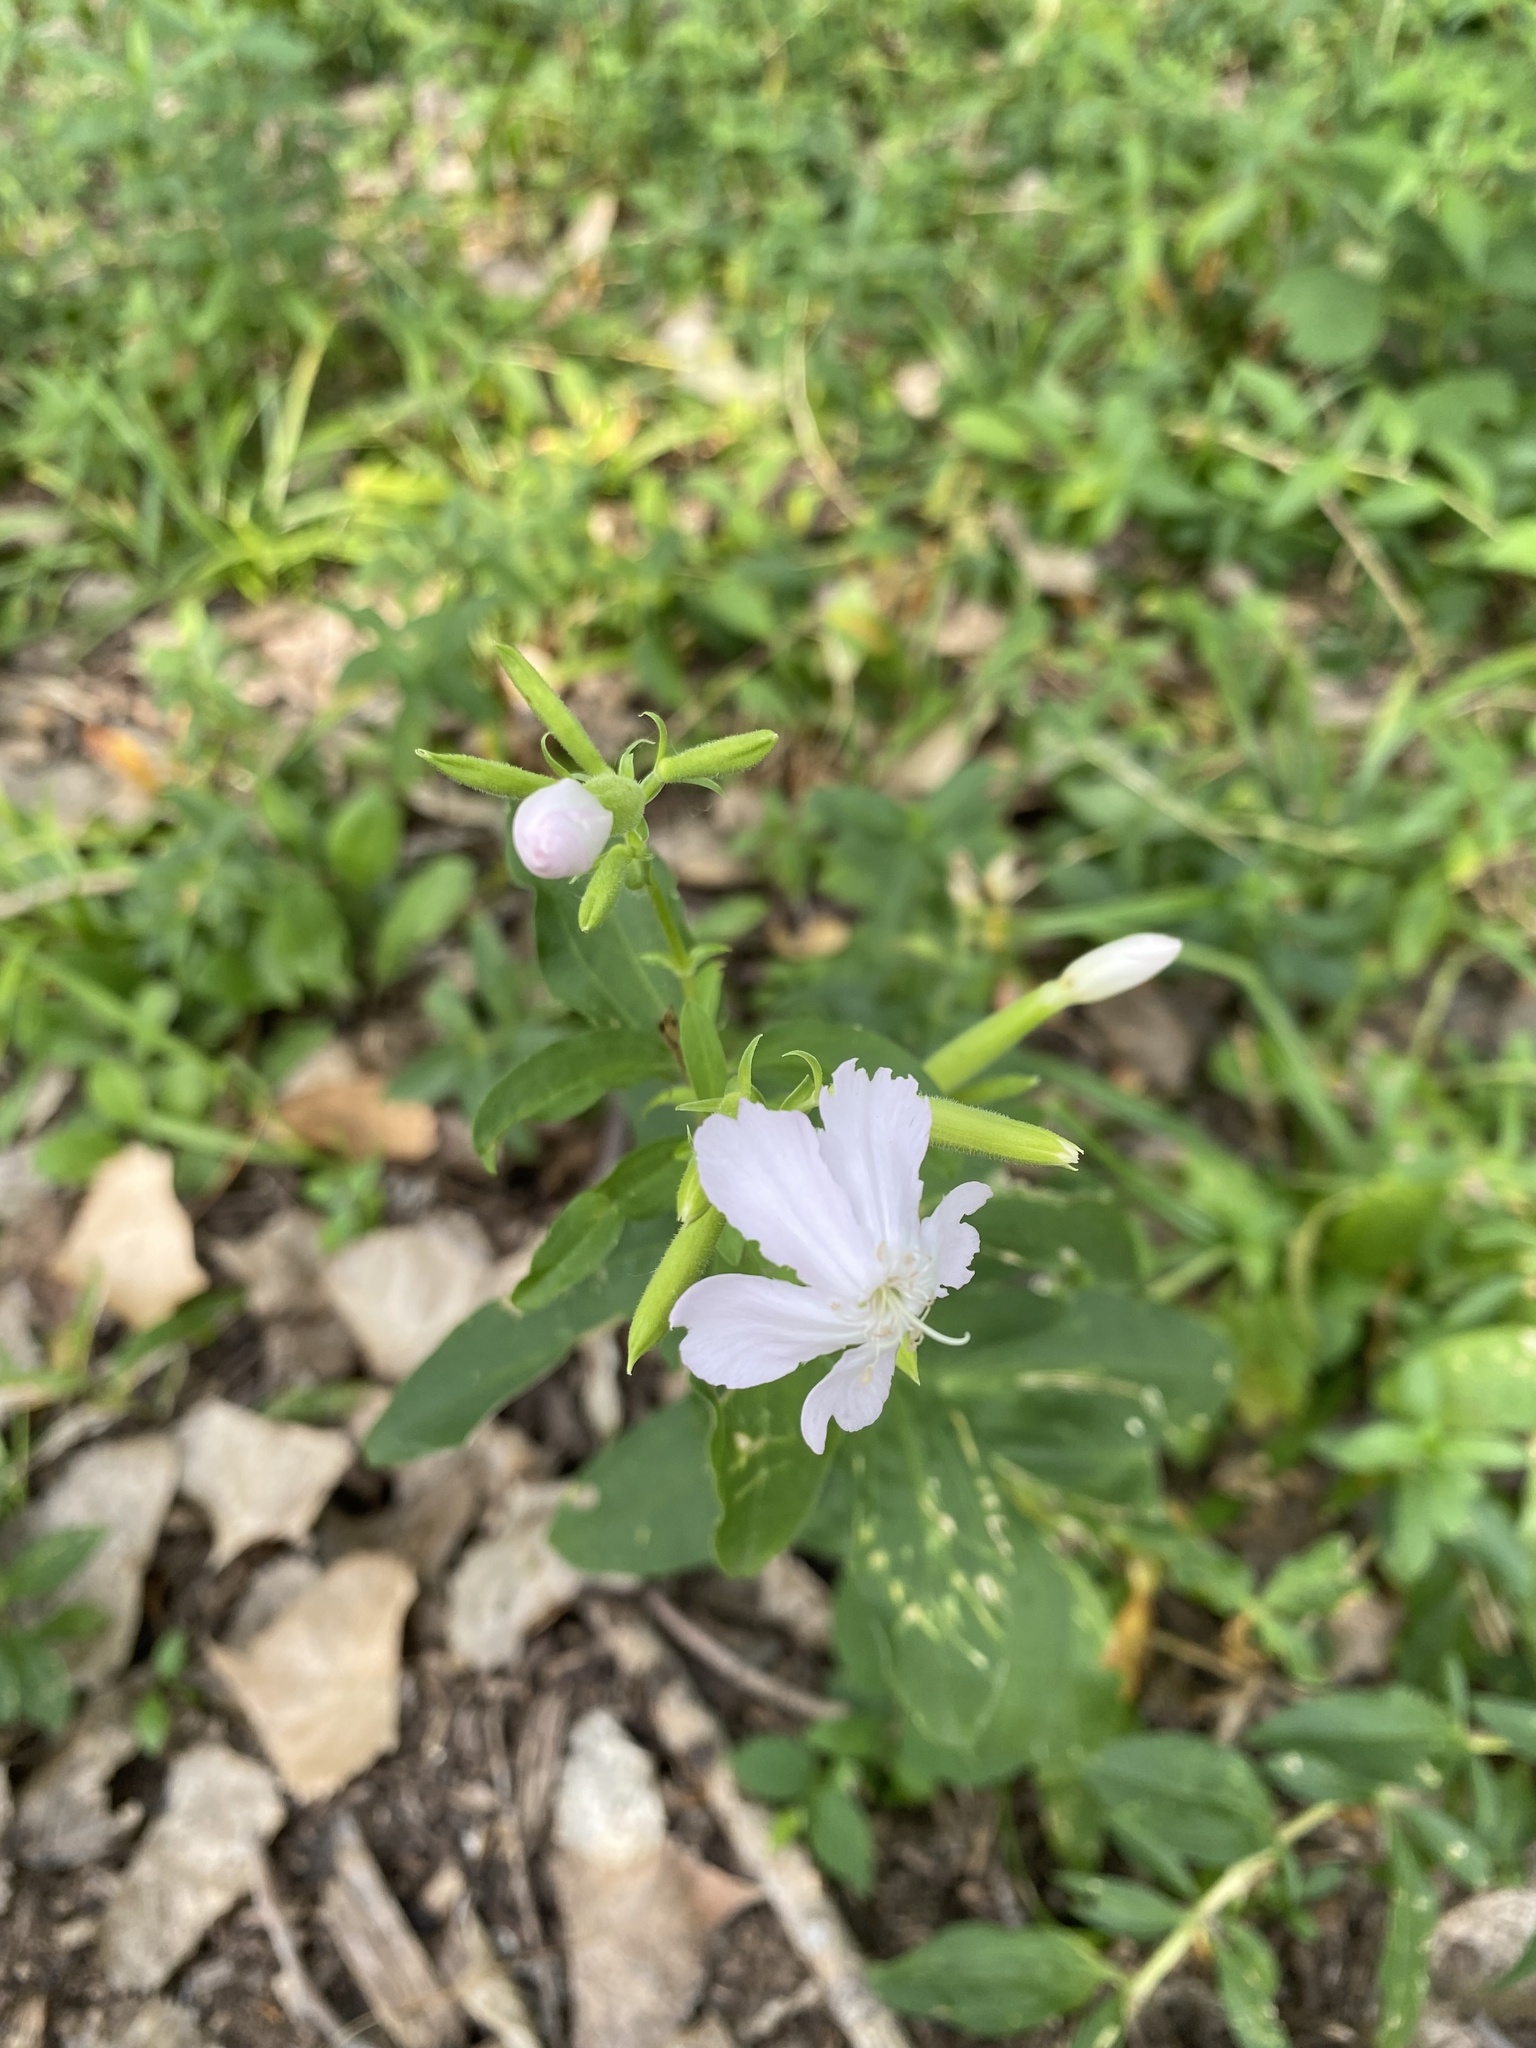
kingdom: Plantae
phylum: Tracheophyta
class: Magnoliopsida
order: Caryophyllales
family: Caryophyllaceae
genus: Saponaria
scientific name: Saponaria officinalis
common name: Soapwort
